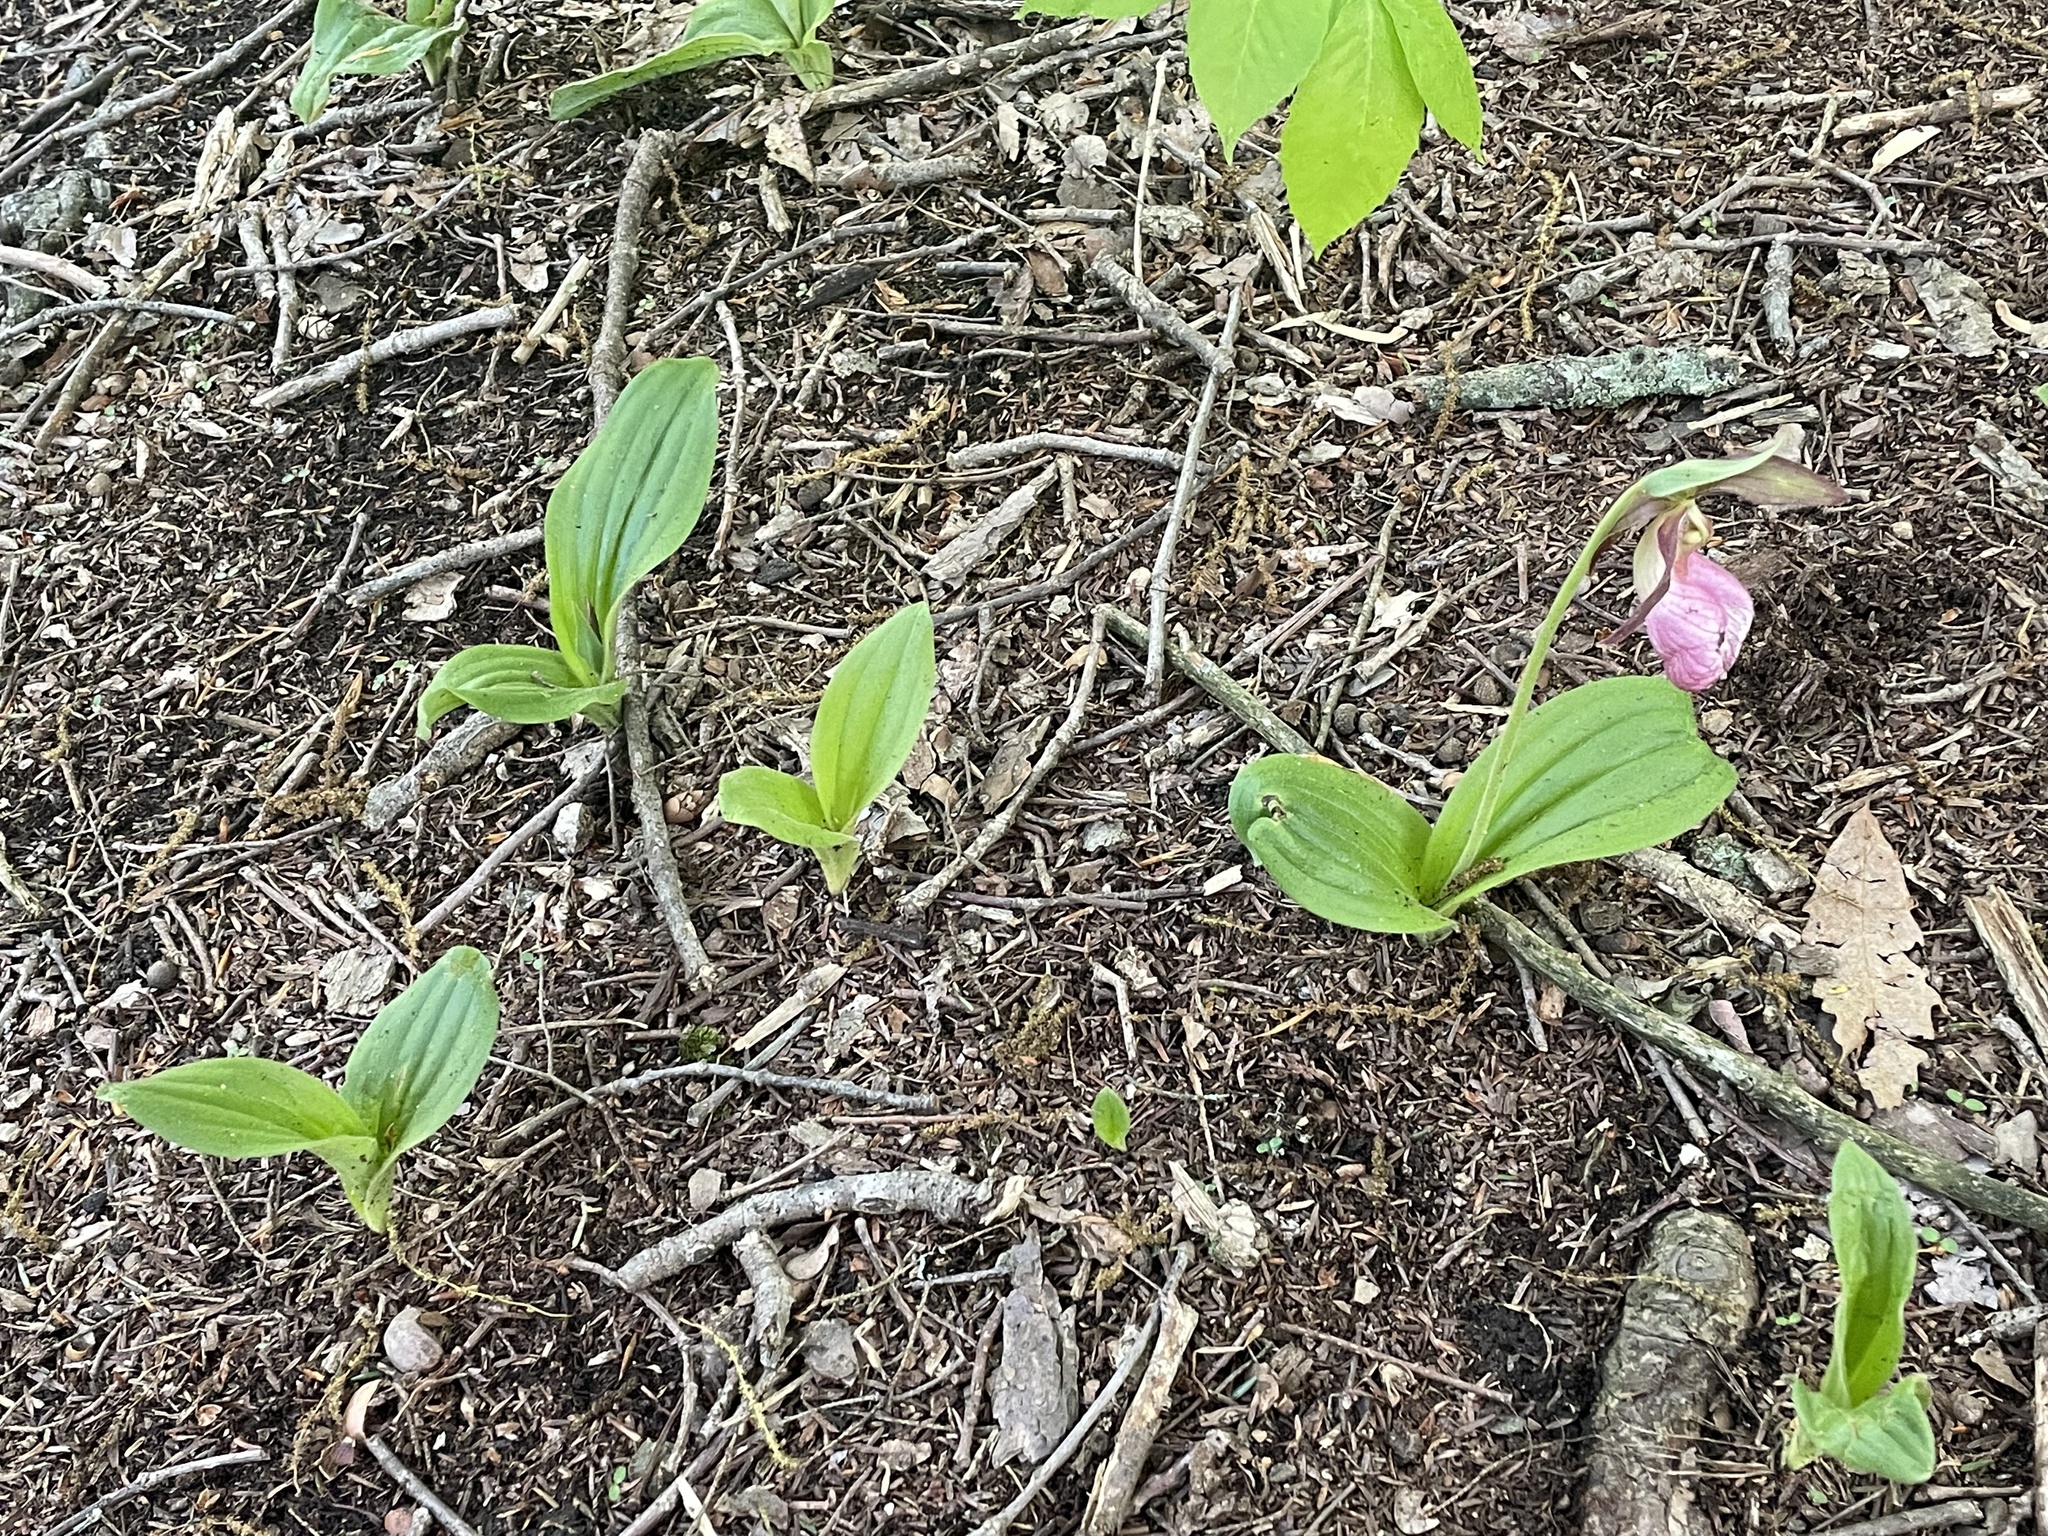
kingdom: Plantae
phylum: Tracheophyta
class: Liliopsida
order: Asparagales
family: Orchidaceae
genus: Cypripedium
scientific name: Cypripedium acaule
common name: Pink lady's-slipper
